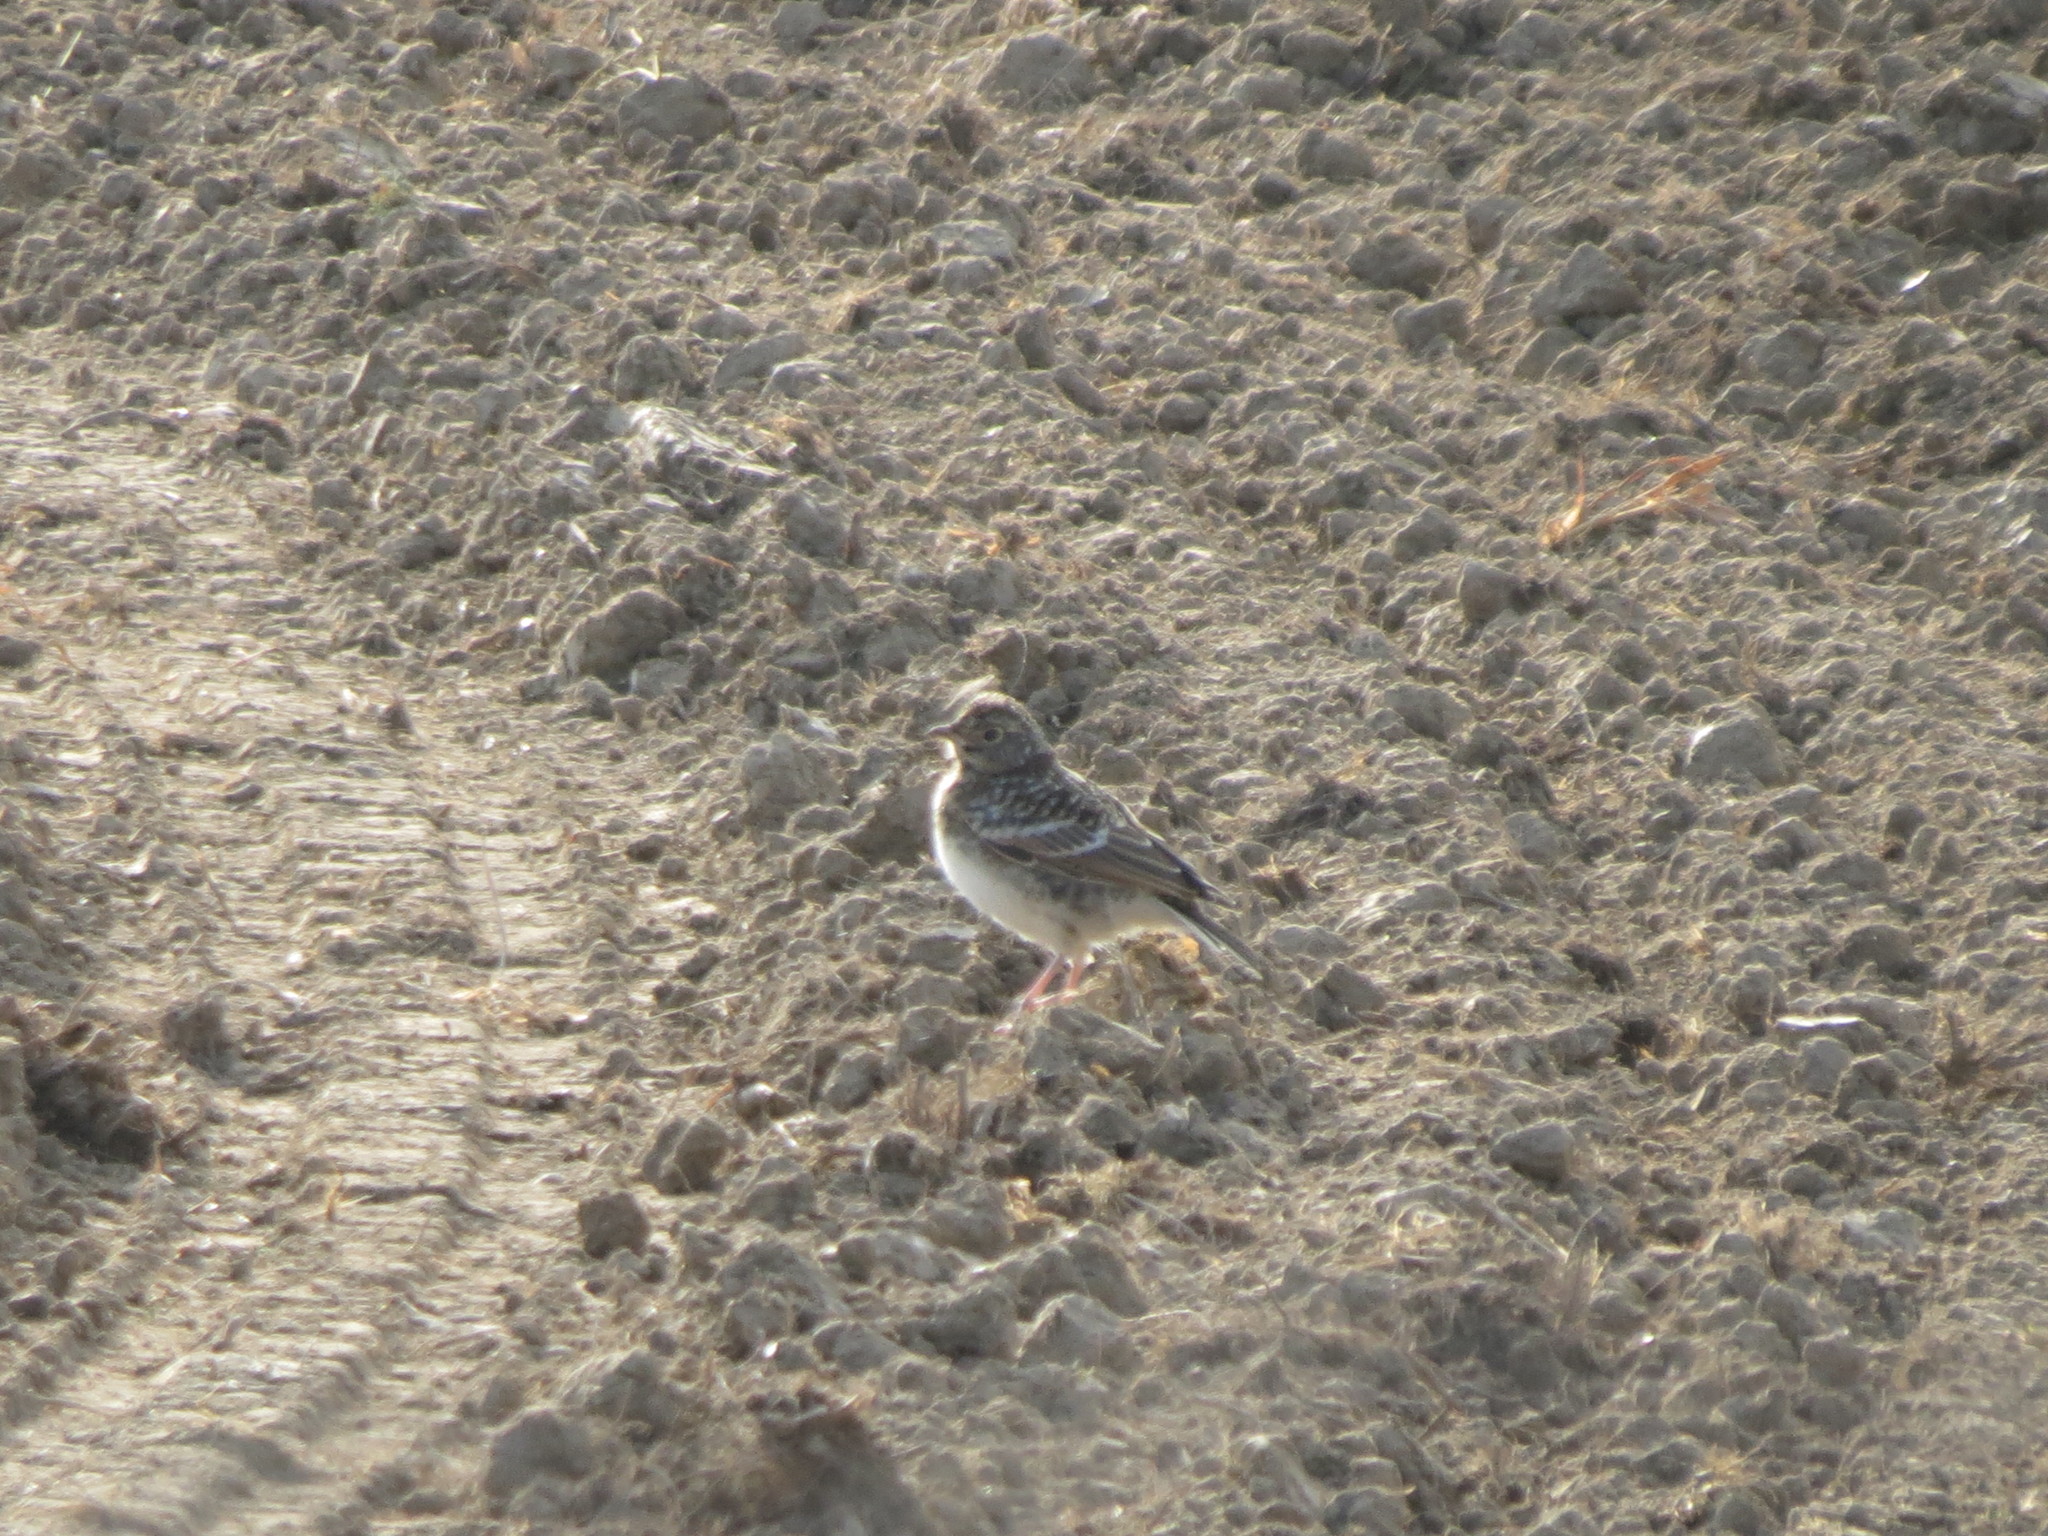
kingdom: Animalia
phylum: Chordata
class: Aves
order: Passeriformes
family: Alaudidae
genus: Eremophila
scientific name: Eremophila alpestris
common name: Horned lark
